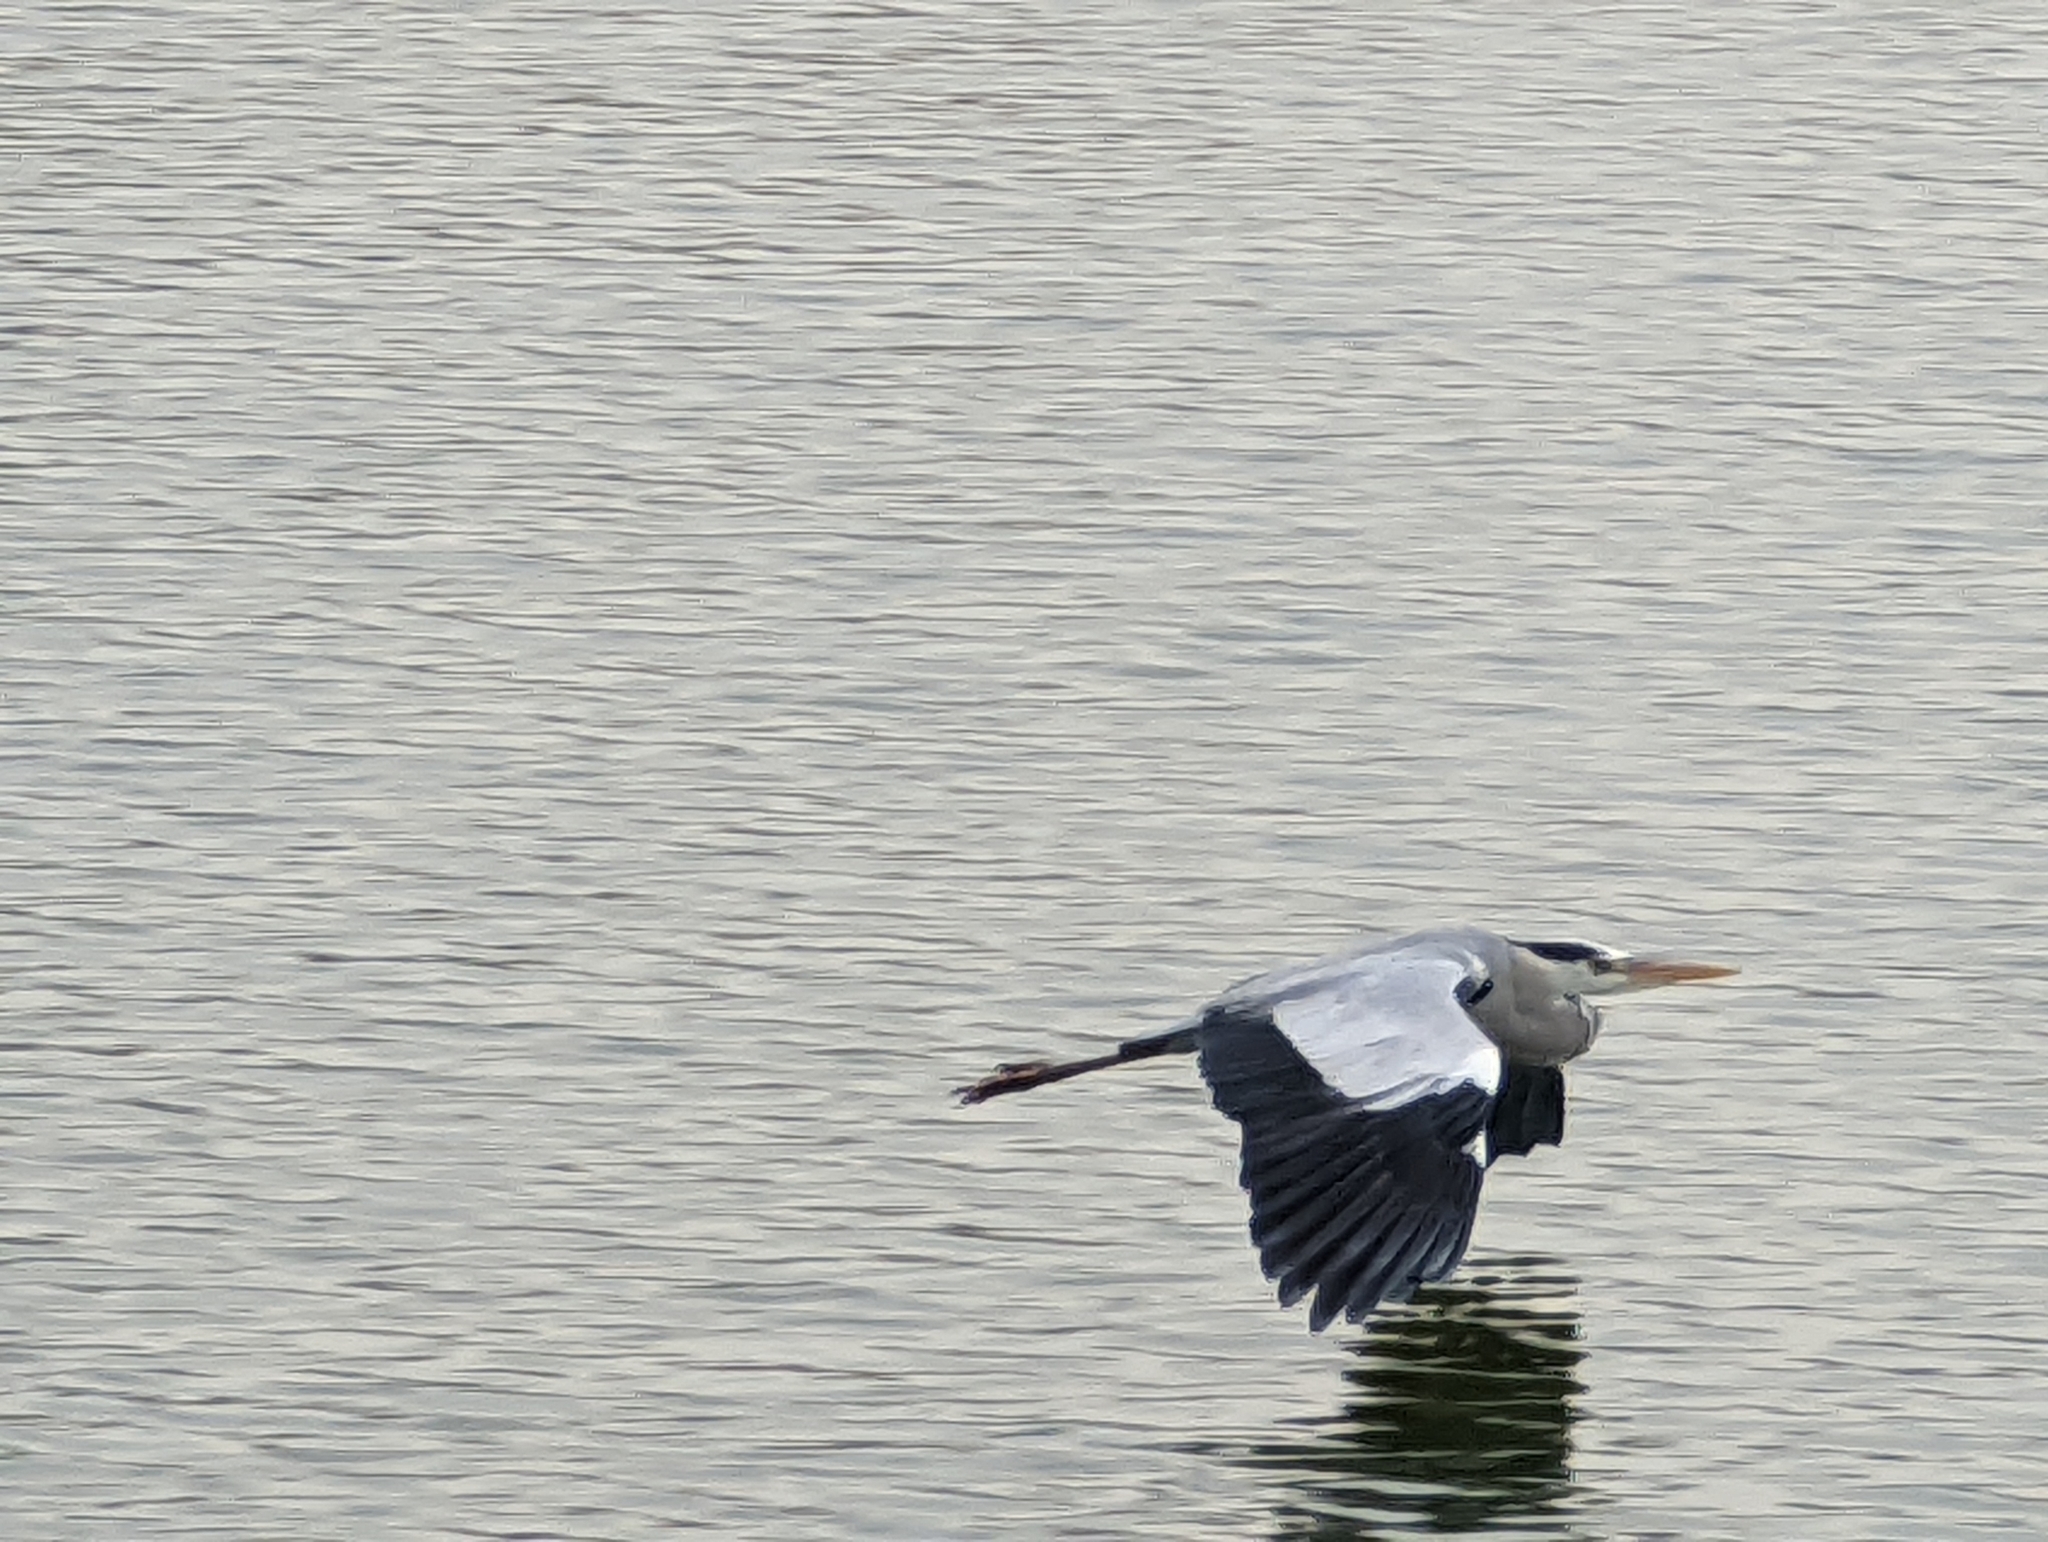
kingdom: Animalia
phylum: Chordata
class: Aves
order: Pelecaniformes
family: Ardeidae
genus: Ardea
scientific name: Ardea cinerea
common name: Grey heron
